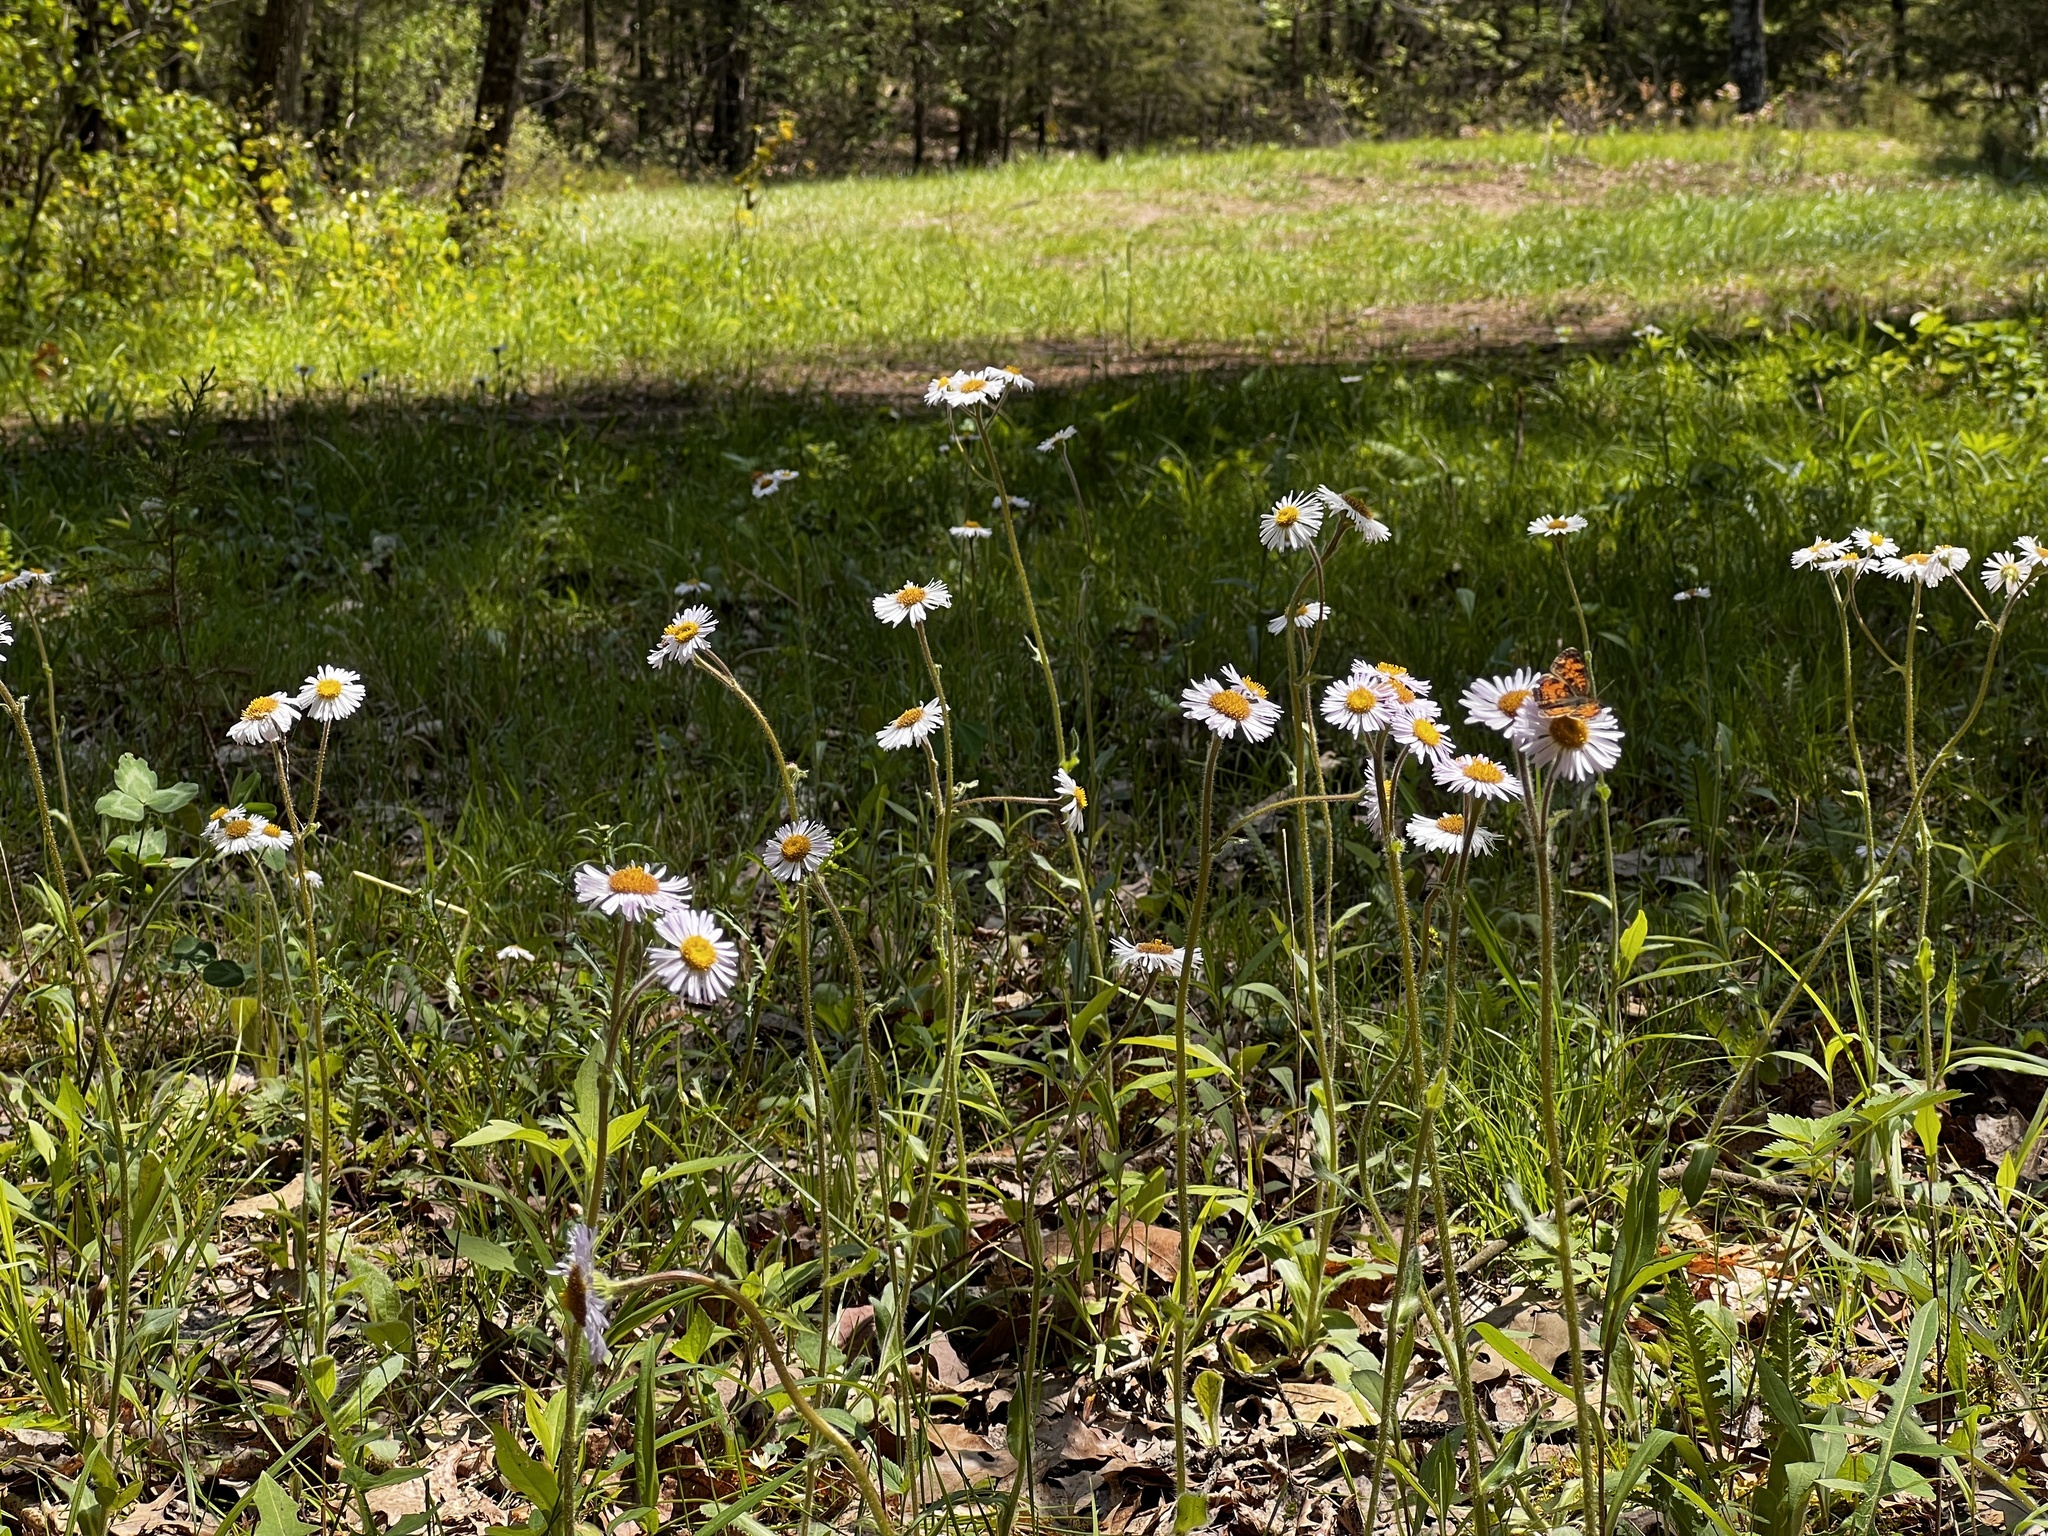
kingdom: Plantae
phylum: Tracheophyta
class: Magnoliopsida
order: Asterales
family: Asteraceae
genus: Erigeron
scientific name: Erigeron pulchellus
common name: Hairy fleabane
